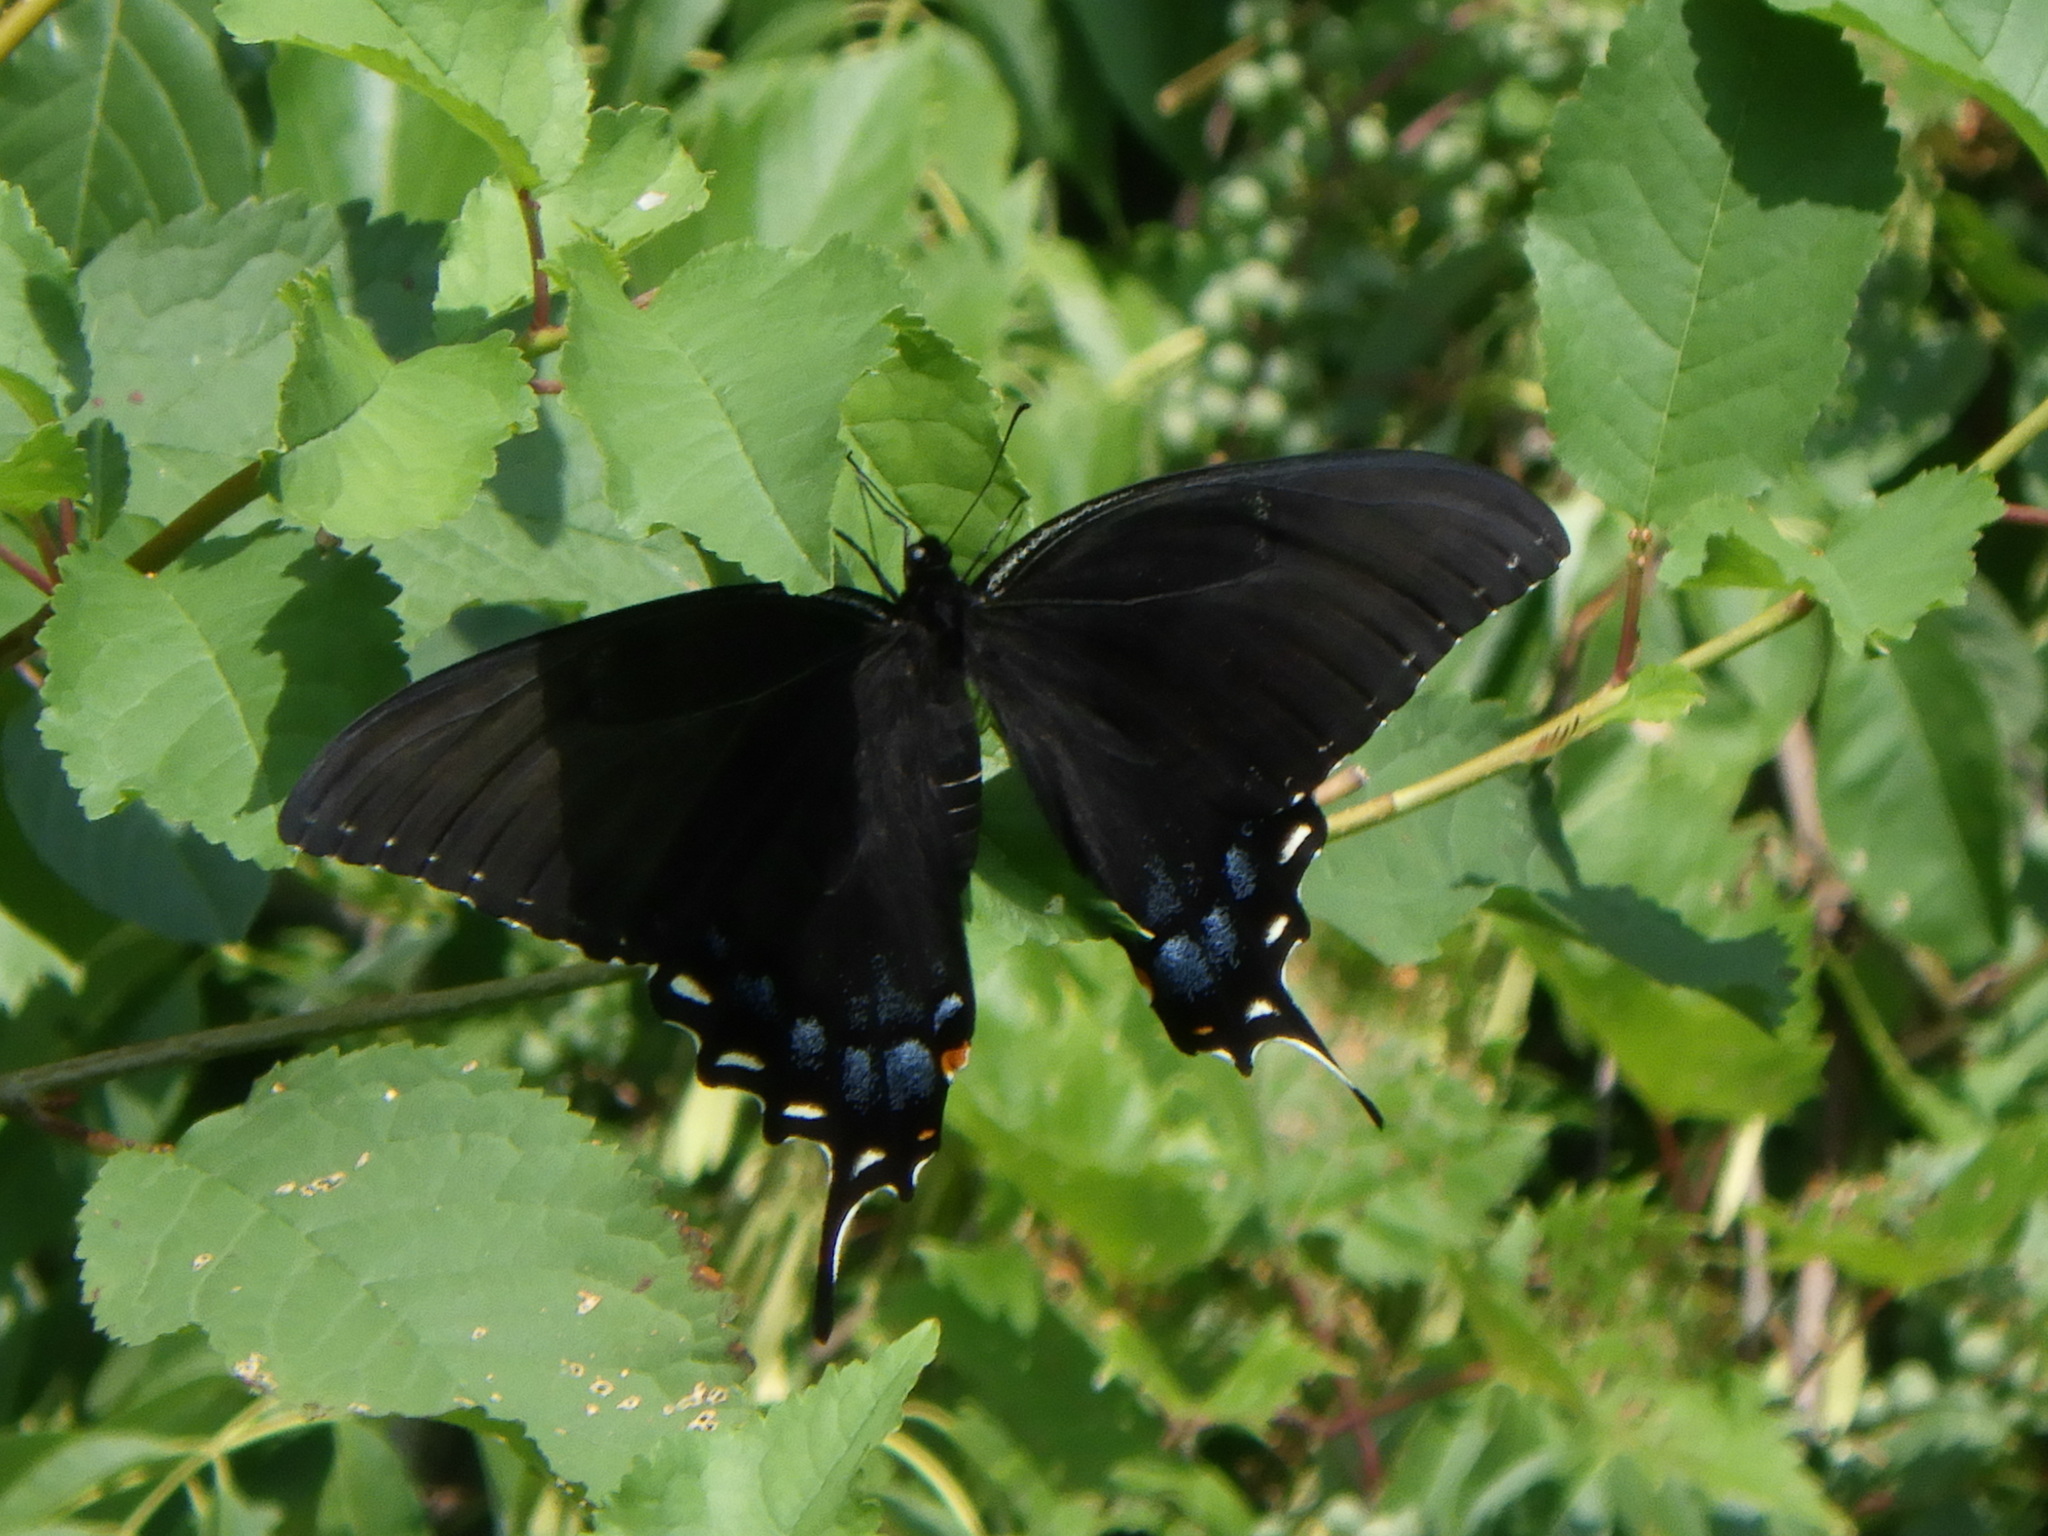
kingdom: Animalia
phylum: Arthropoda
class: Insecta
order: Lepidoptera
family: Papilionidae
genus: Papilio
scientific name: Papilio glaucus
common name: Tiger swallowtail
